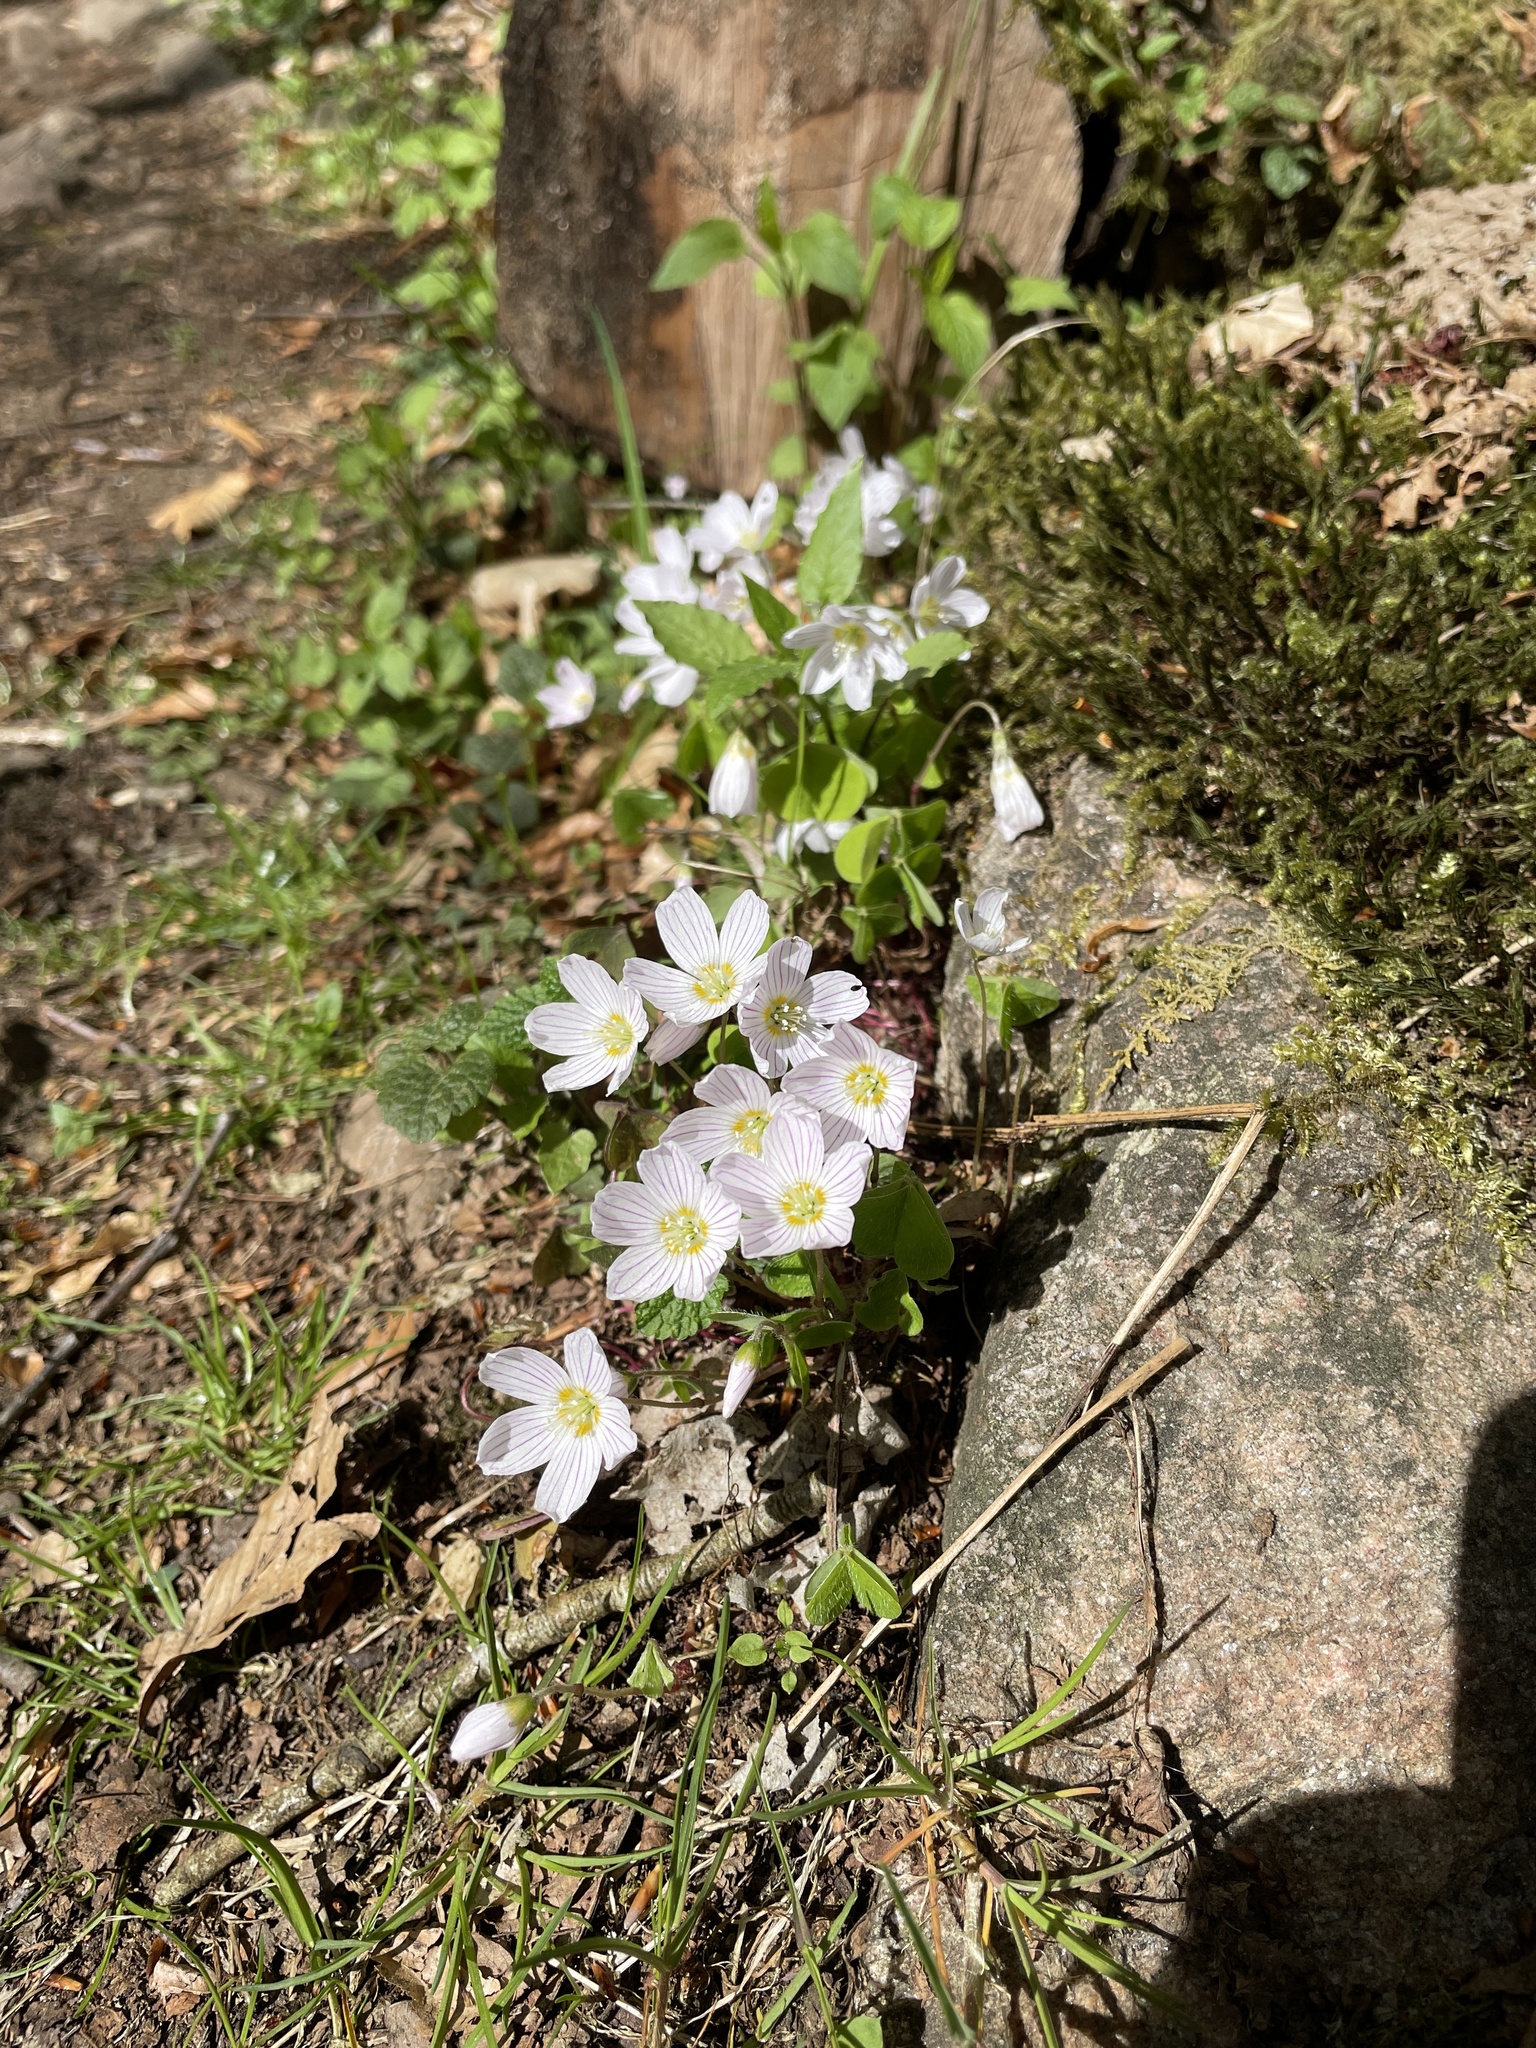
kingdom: Plantae
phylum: Tracheophyta
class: Magnoliopsida
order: Oxalidales
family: Oxalidaceae
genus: Oxalis
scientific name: Oxalis acetosella
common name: Wood-sorrel
